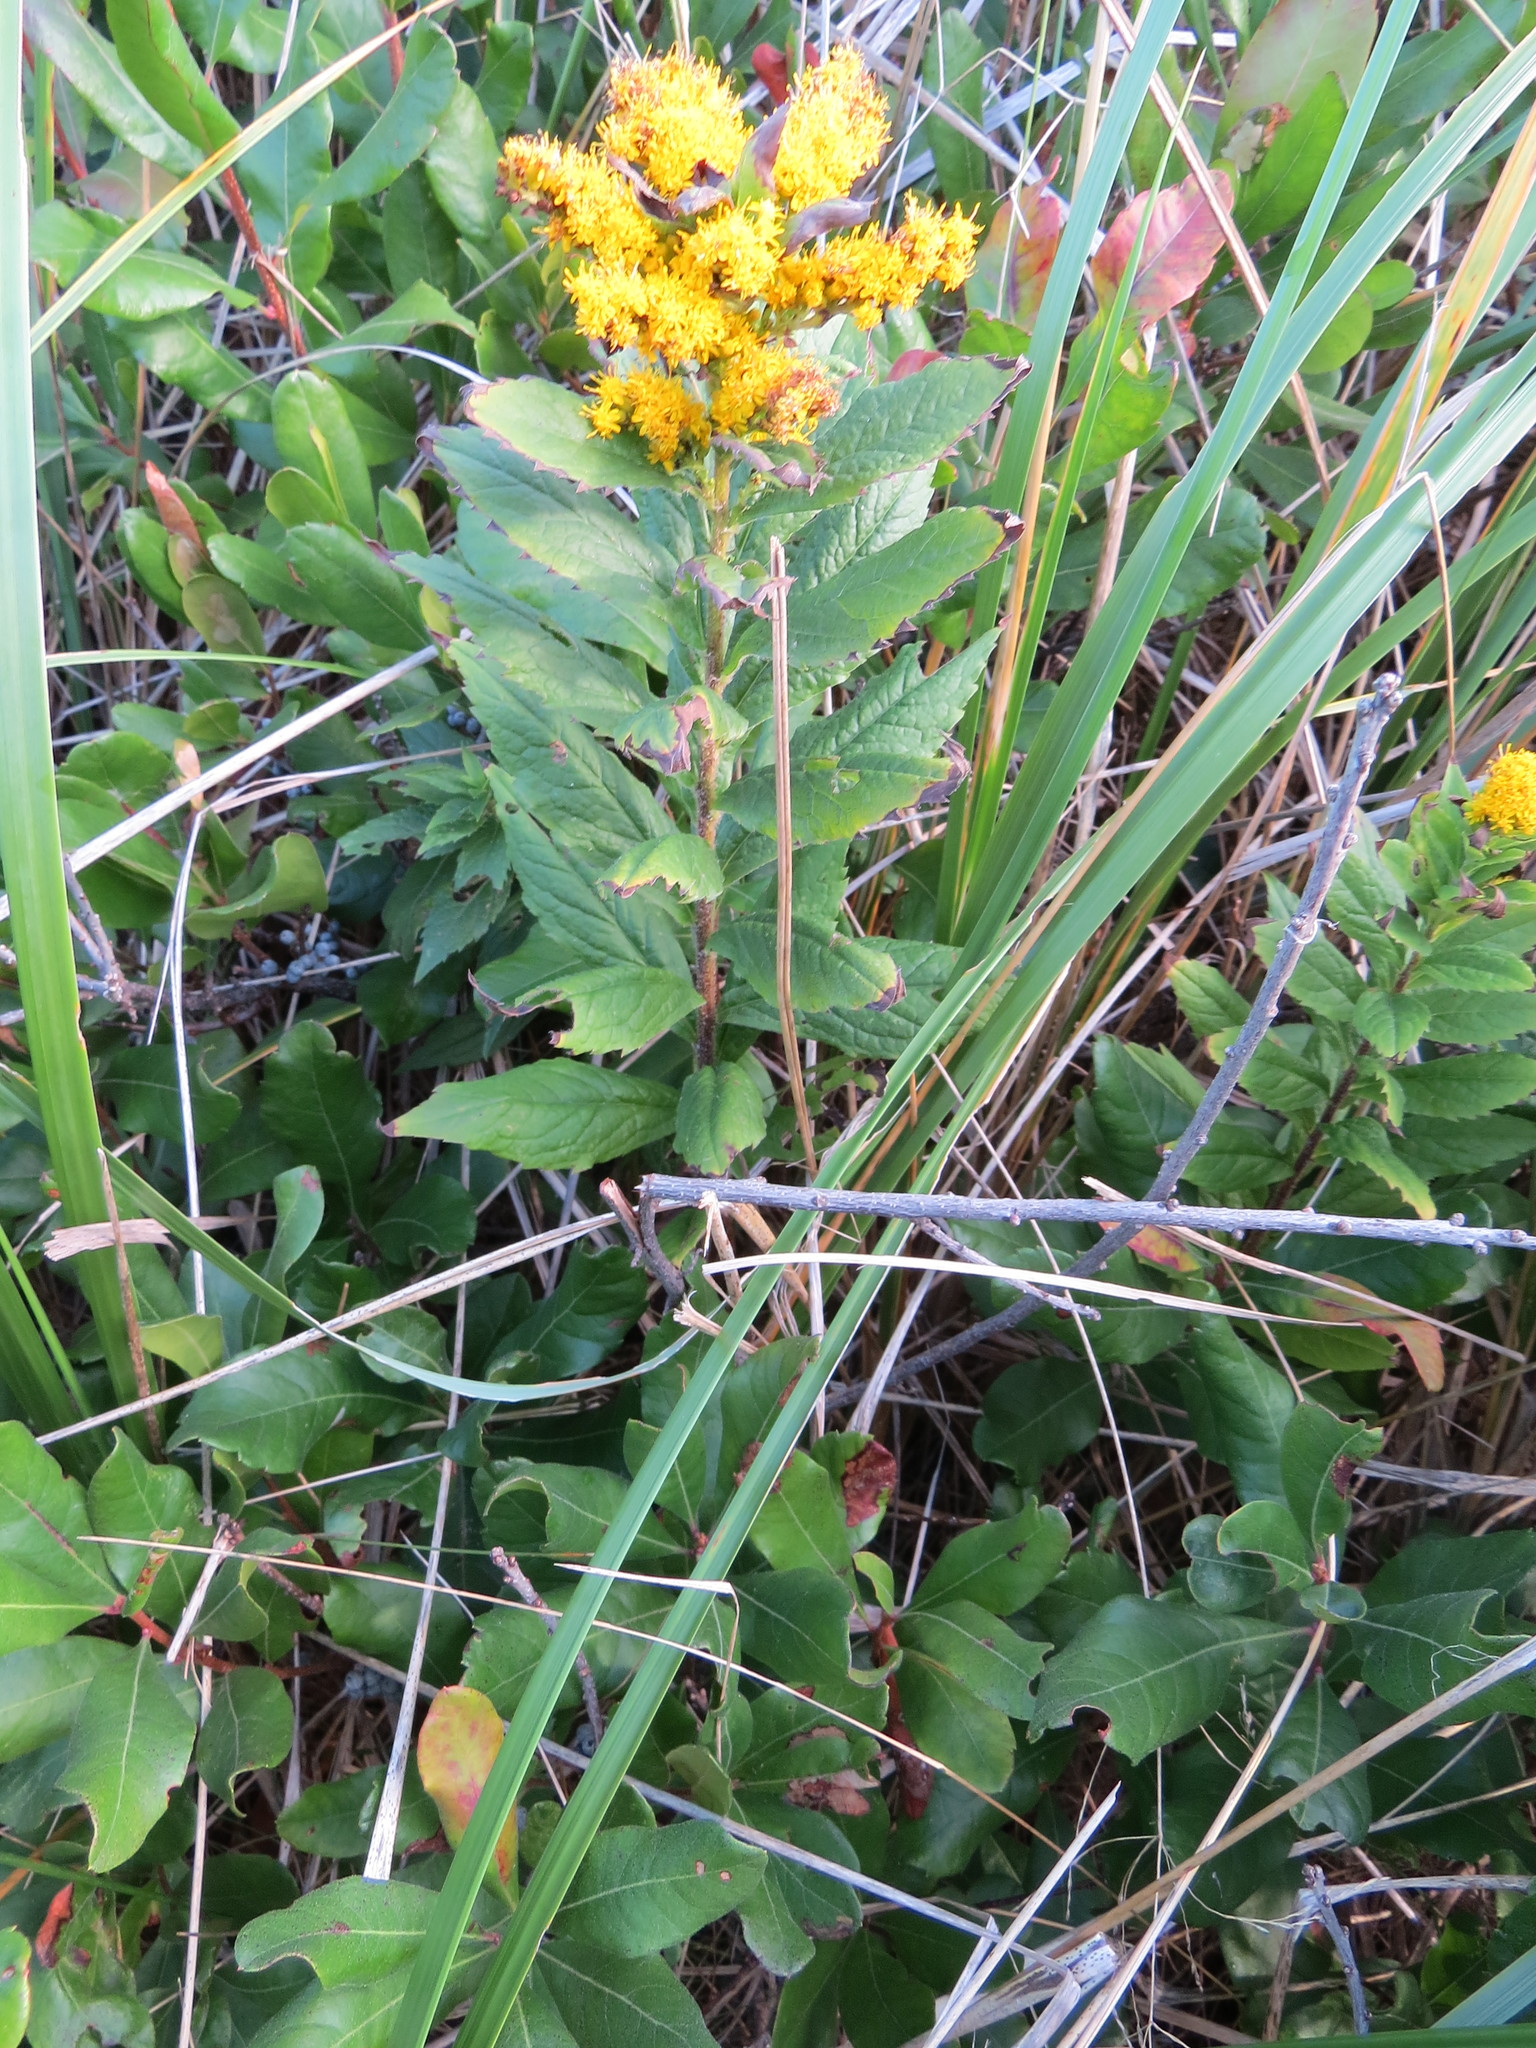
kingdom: Plantae
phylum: Tracheophyta
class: Magnoliopsida
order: Asterales
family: Asteraceae
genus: Solidago
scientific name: Solidago rugosa
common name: Rough-stemmed goldenrod
